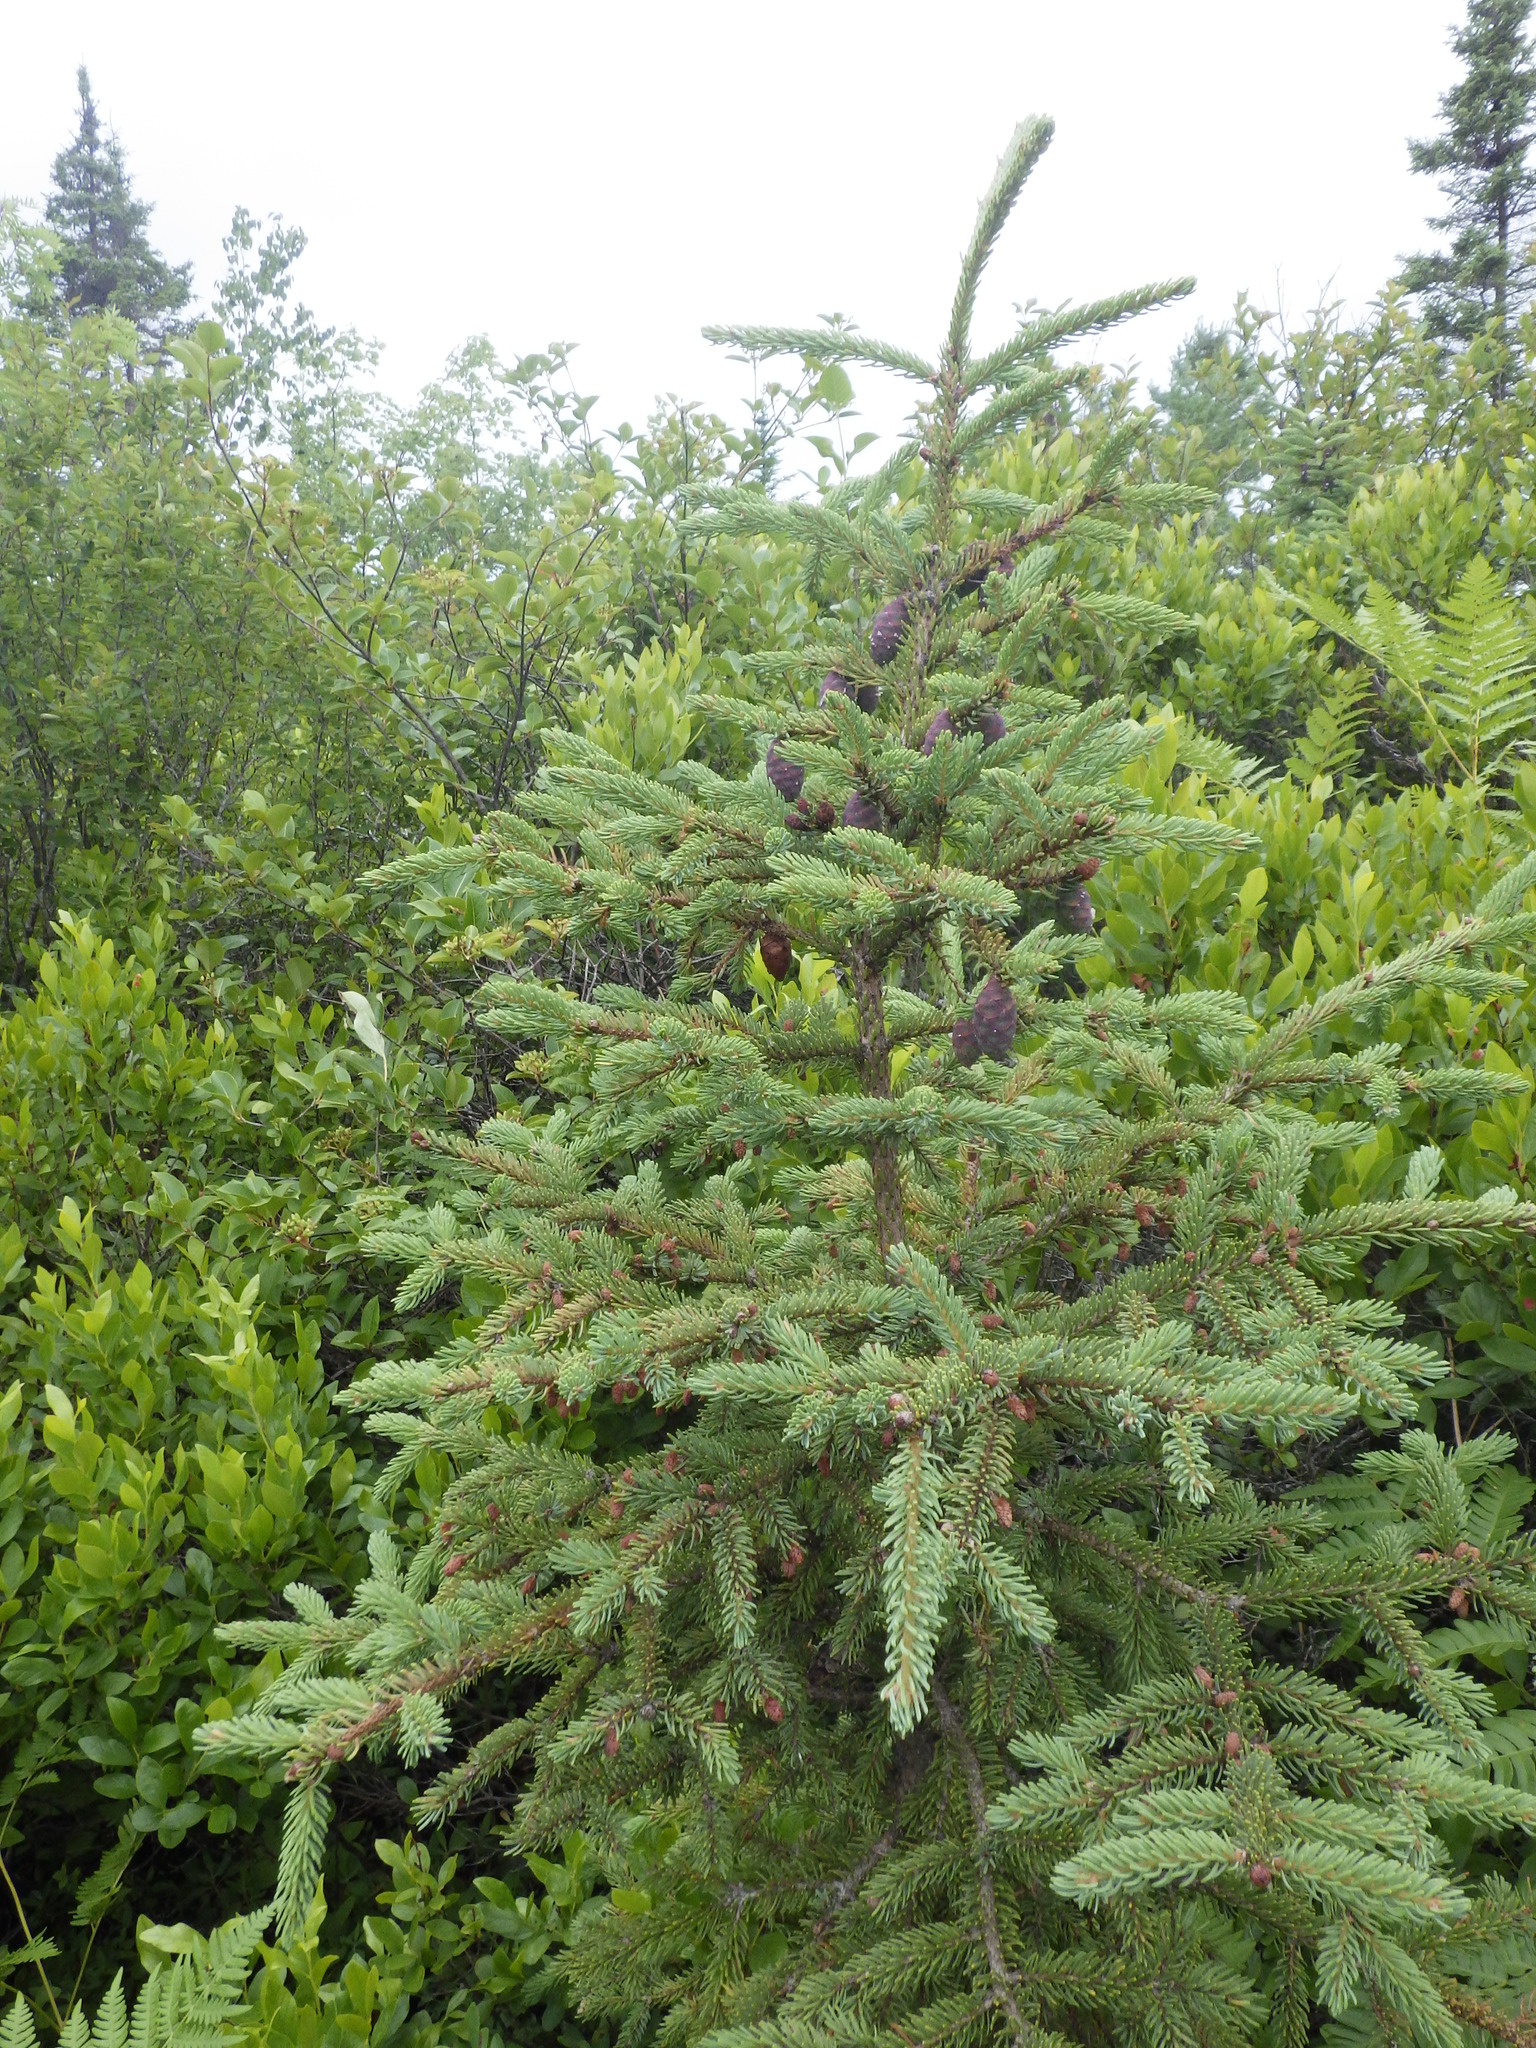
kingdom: Plantae
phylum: Tracheophyta
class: Pinopsida
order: Pinales
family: Pinaceae
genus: Picea
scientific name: Picea mariana
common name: Black spruce
